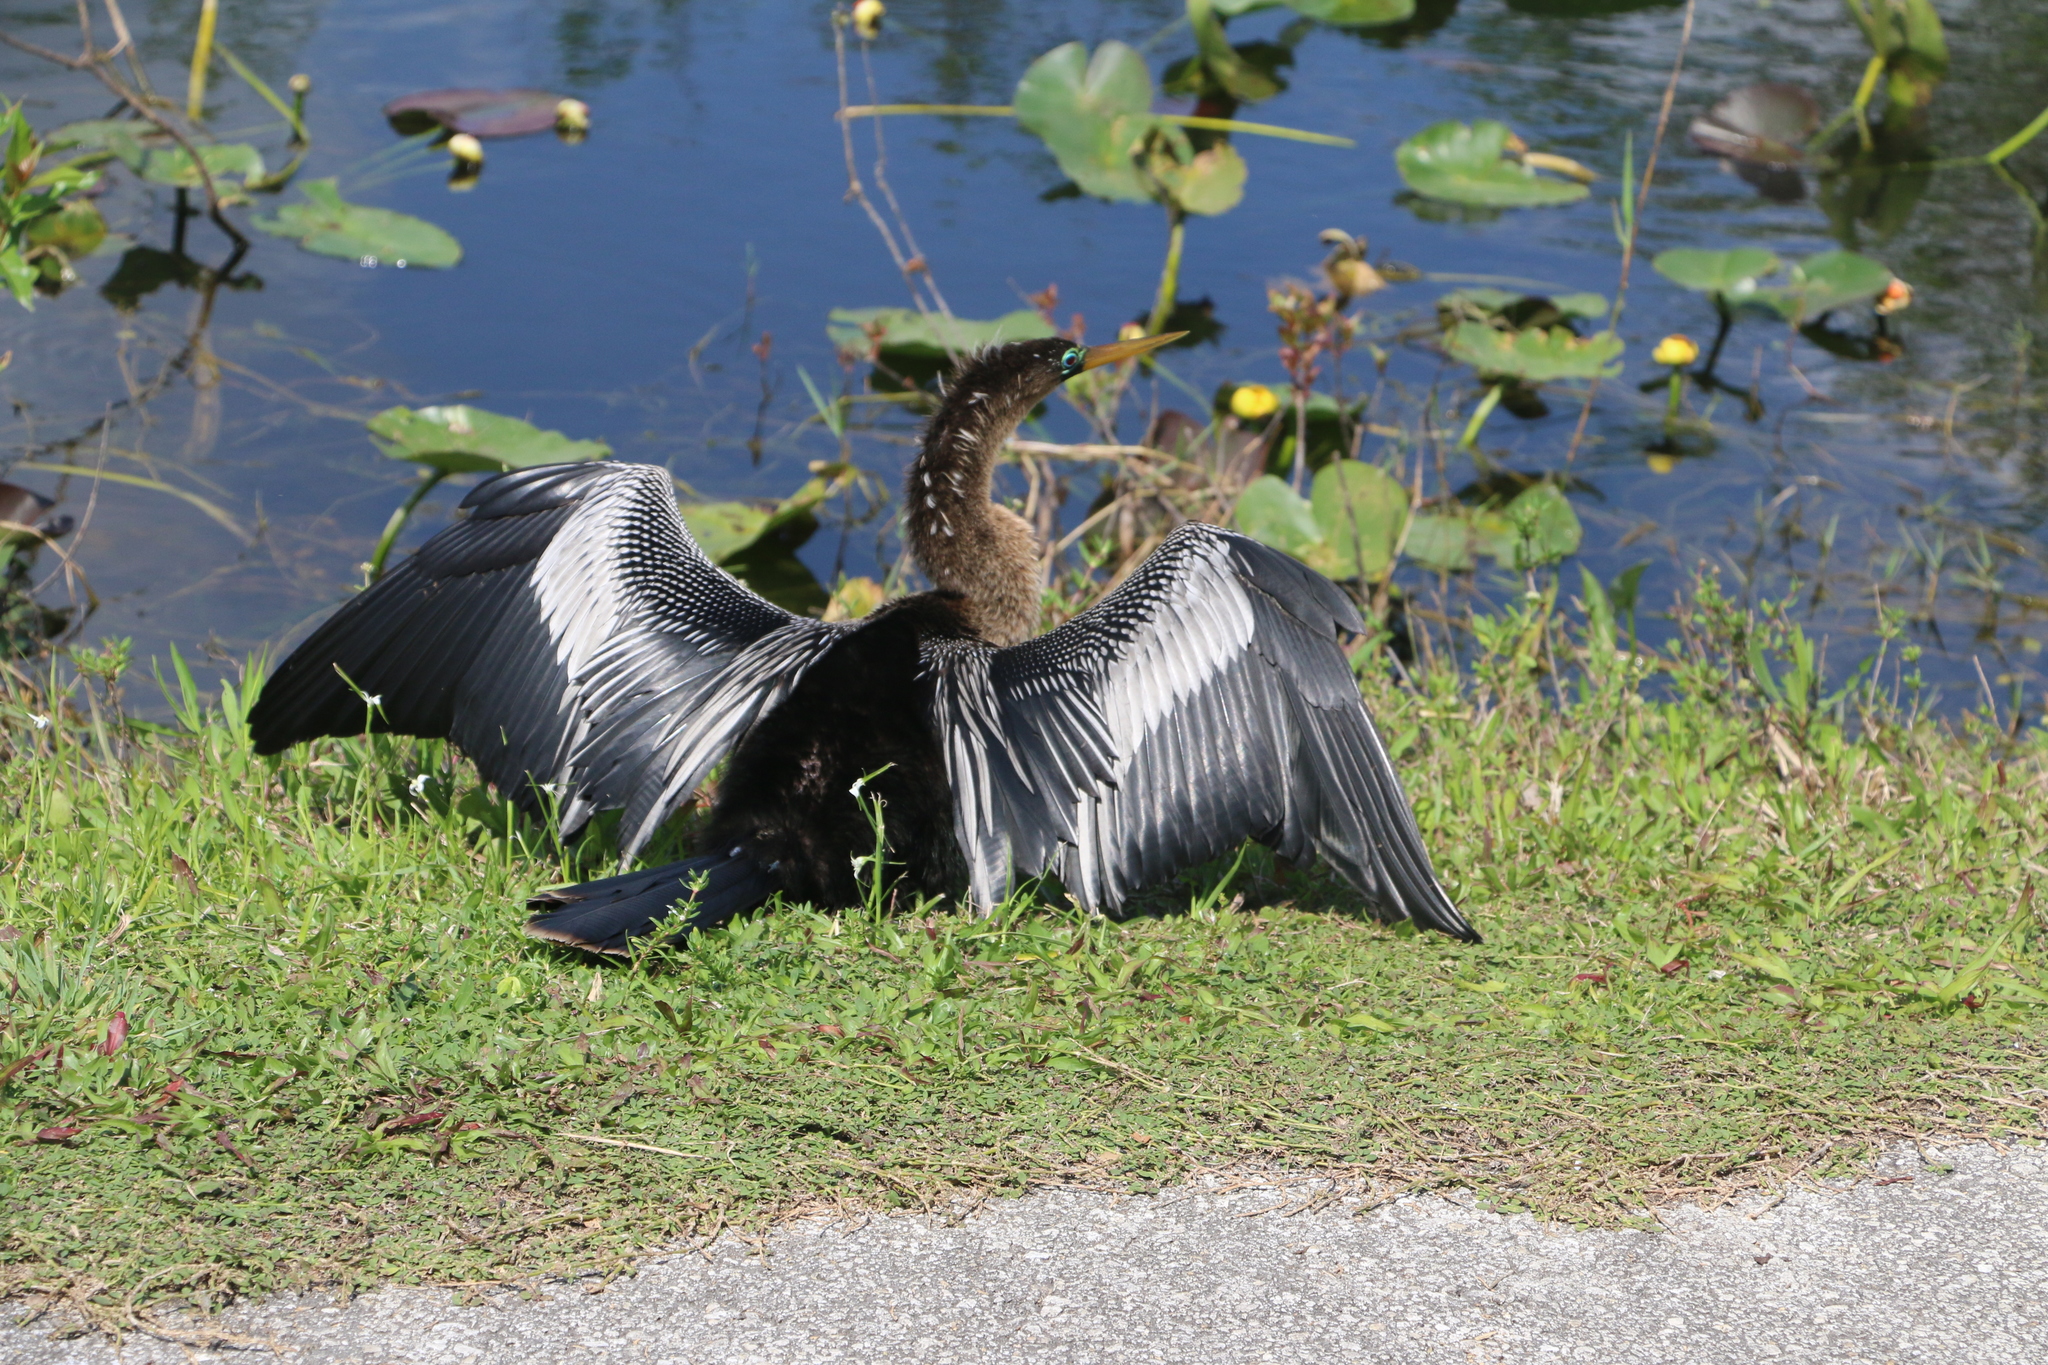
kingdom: Animalia
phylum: Chordata
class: Aves
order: Suliformes
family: Anhingidae
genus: Anhinga
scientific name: Anhinga anhinga
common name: Anhinga
